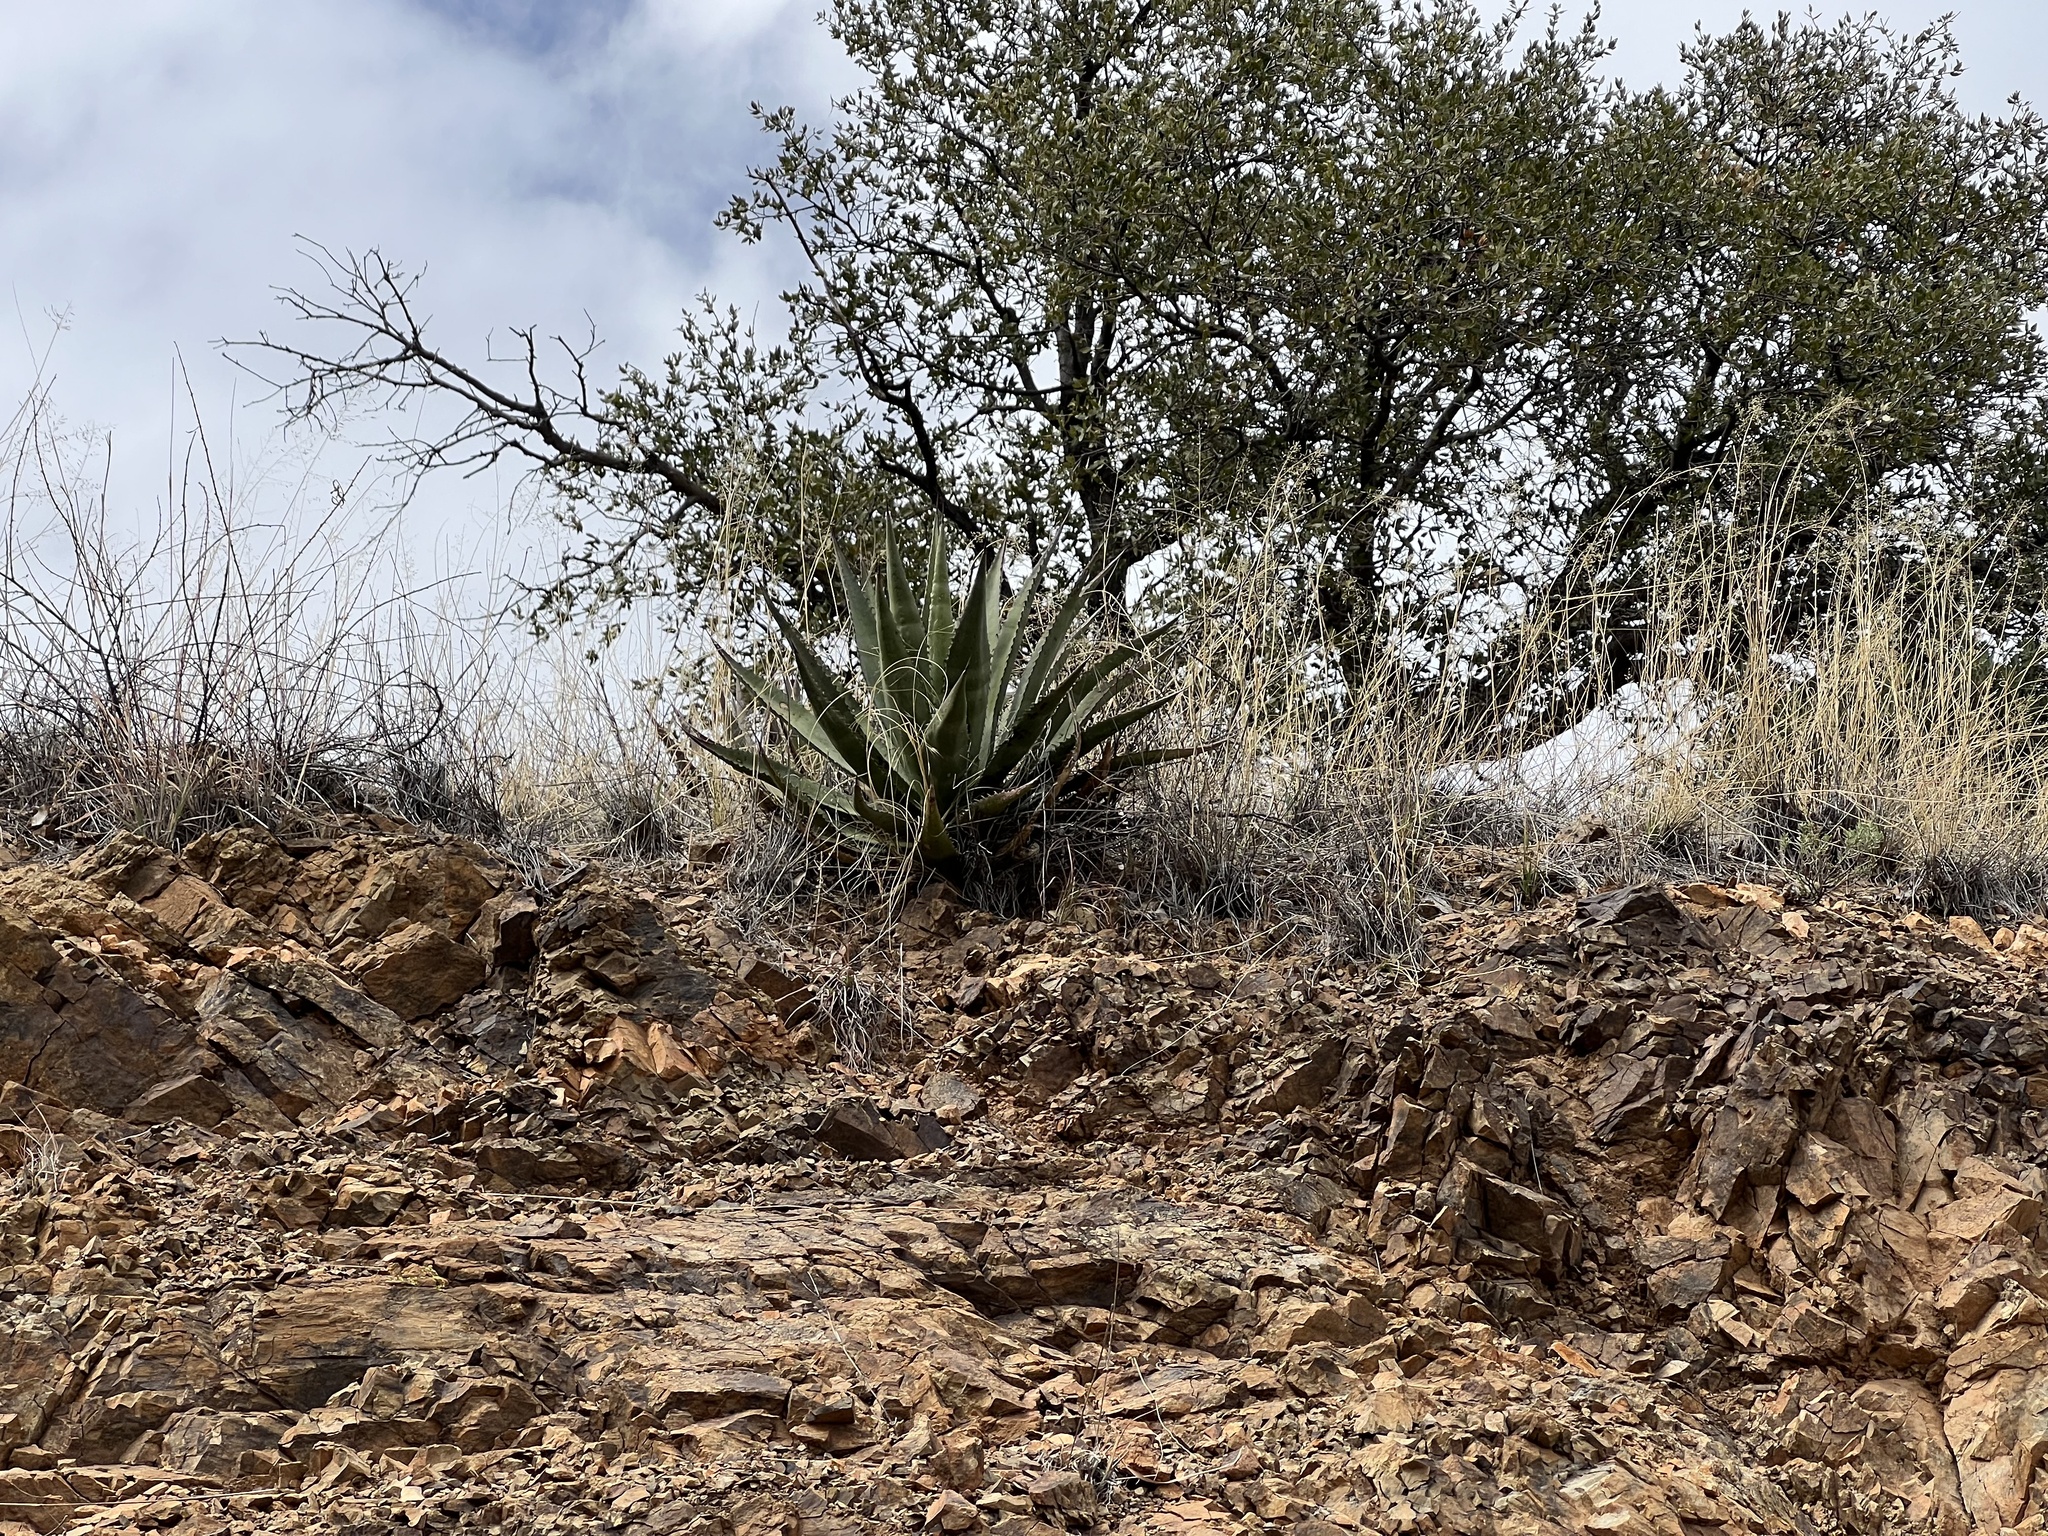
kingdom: Plantae
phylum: Tracheophyta
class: Liliopsida
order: Asparagales
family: Asparagaceae
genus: Agave
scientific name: Agave palmeri
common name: Palmer agave
